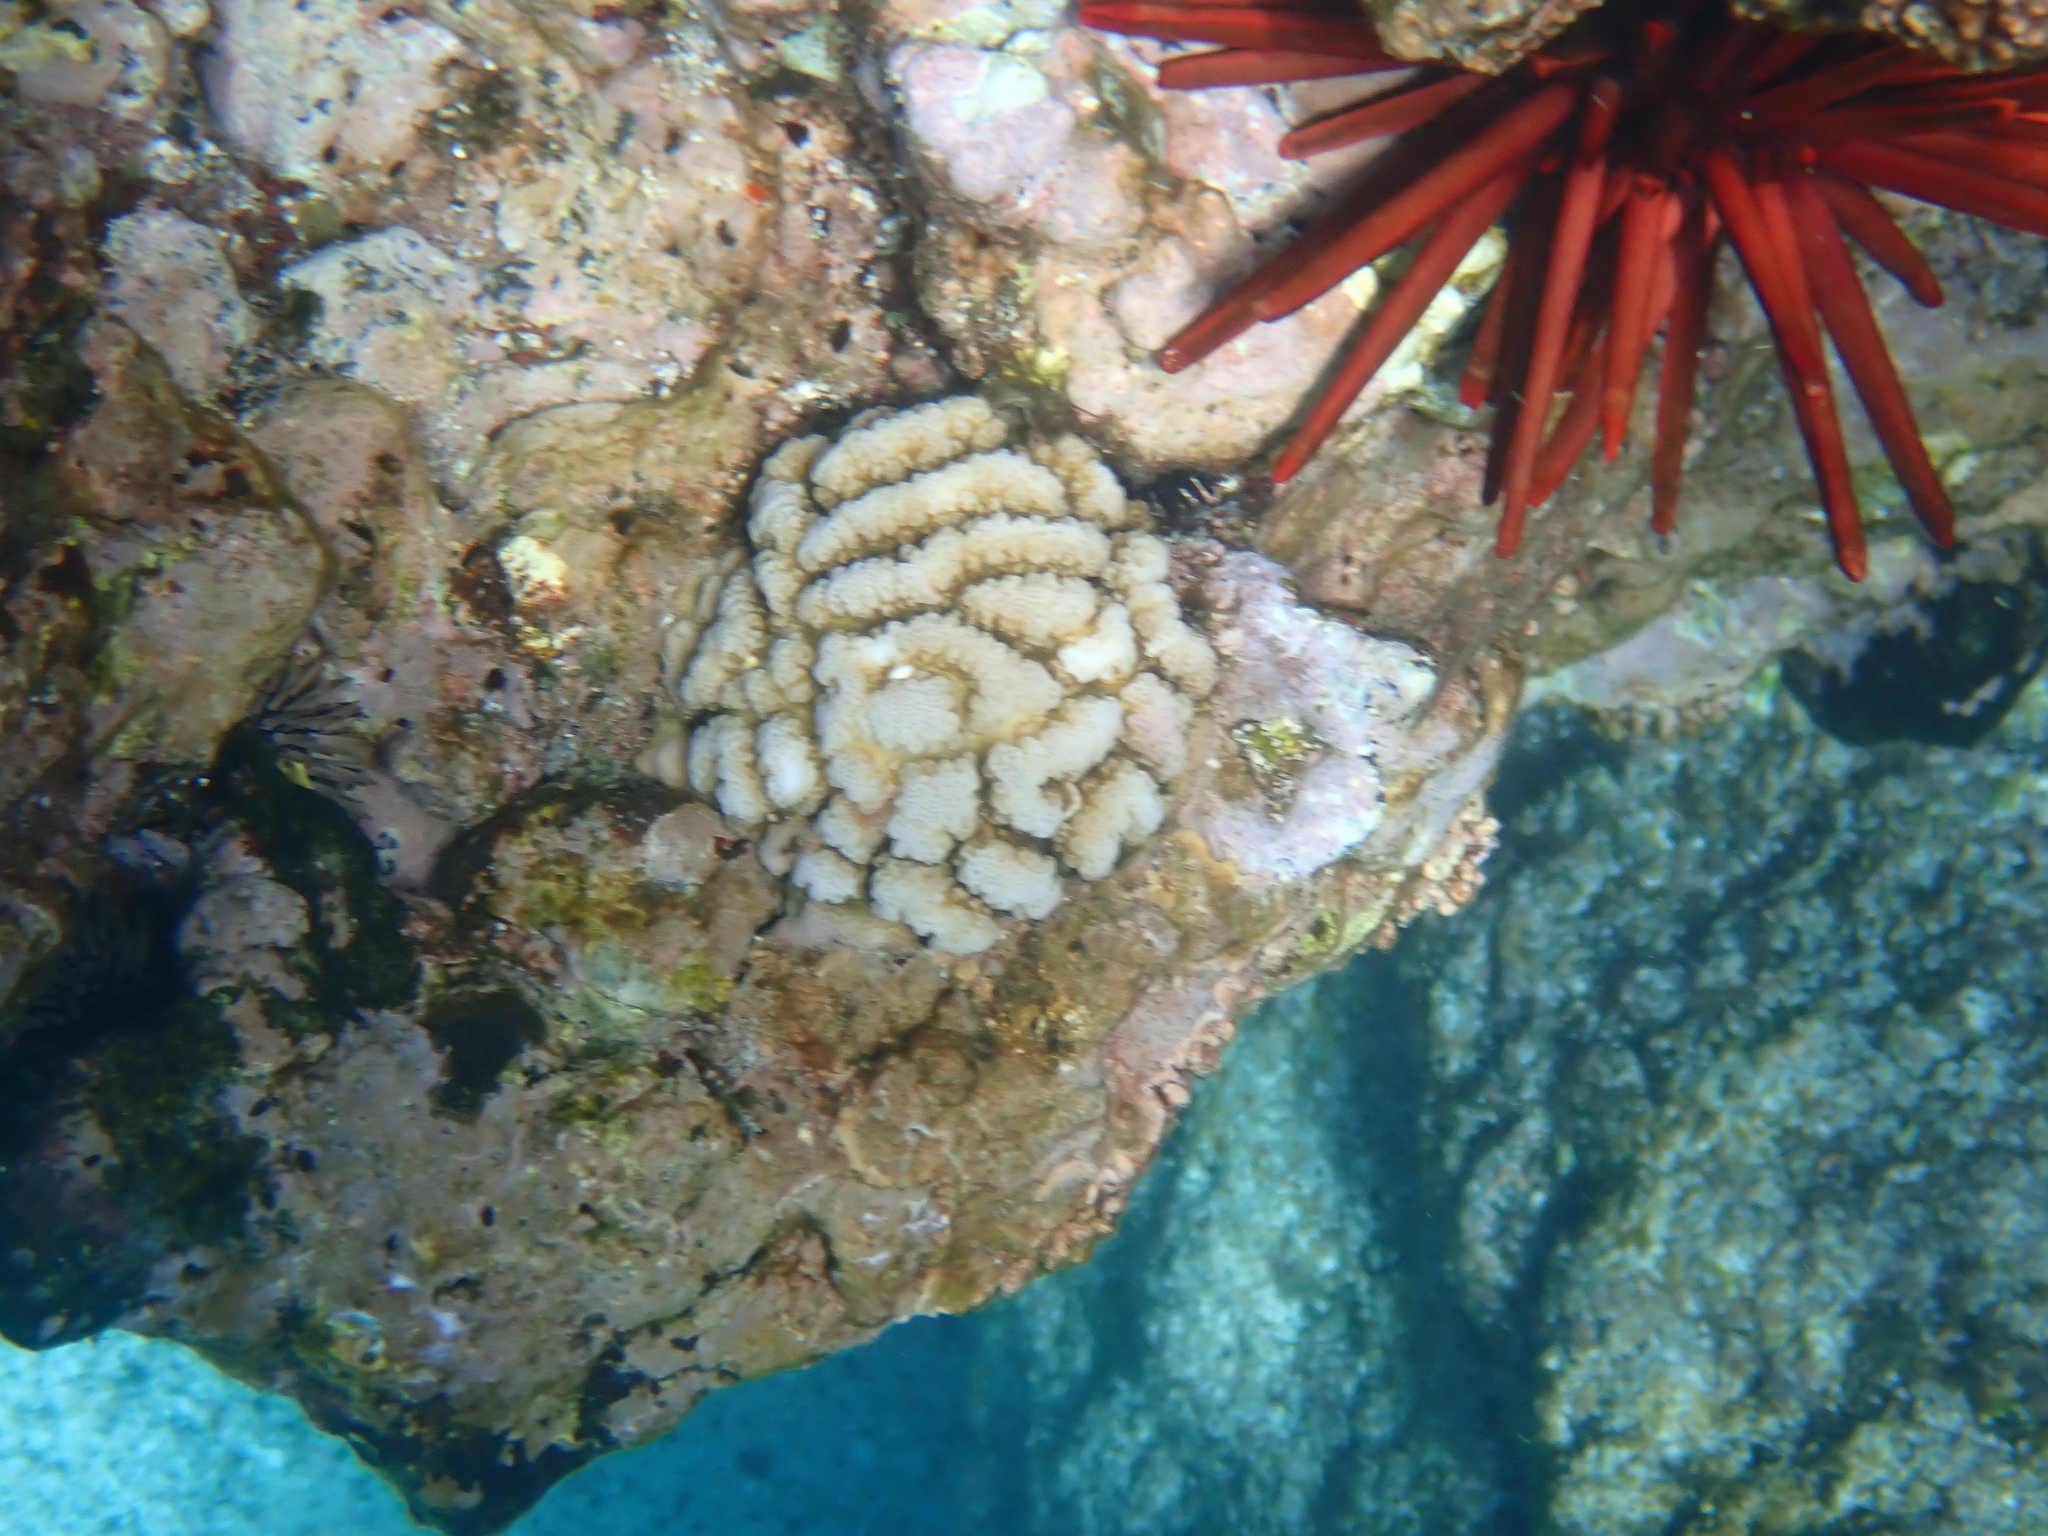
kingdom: Animalia
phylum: Cnidaria
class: Anthozoa
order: Scleractinia
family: Pocilloporidae
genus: Pocillopora
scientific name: Pocillopora meandrina
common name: Cauliflower coral
